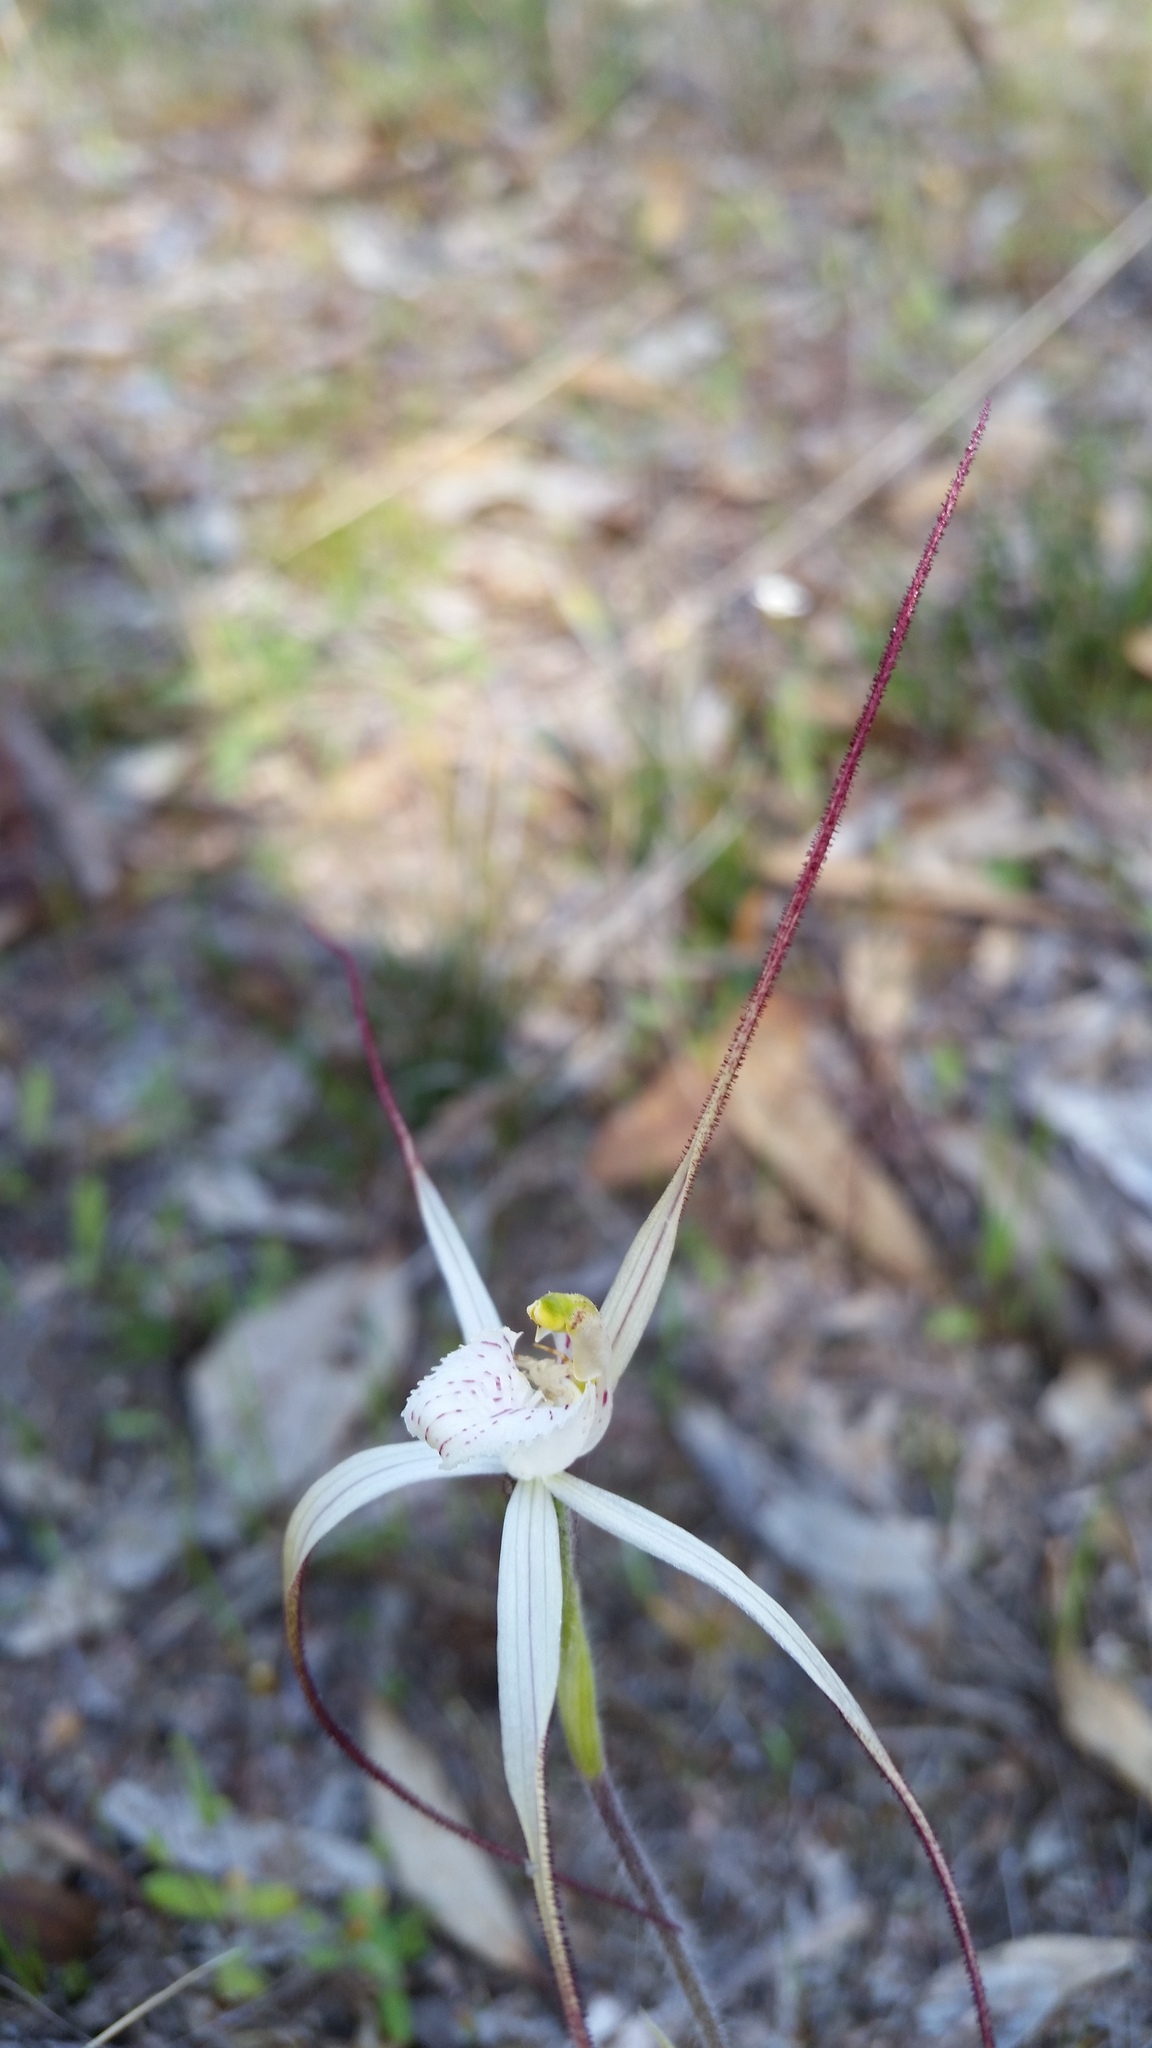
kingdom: Plantae
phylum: Tracheophyta
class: Liliopsida
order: Asparagales
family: Orchidaceae
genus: Caladenia
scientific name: Caladenia varians
